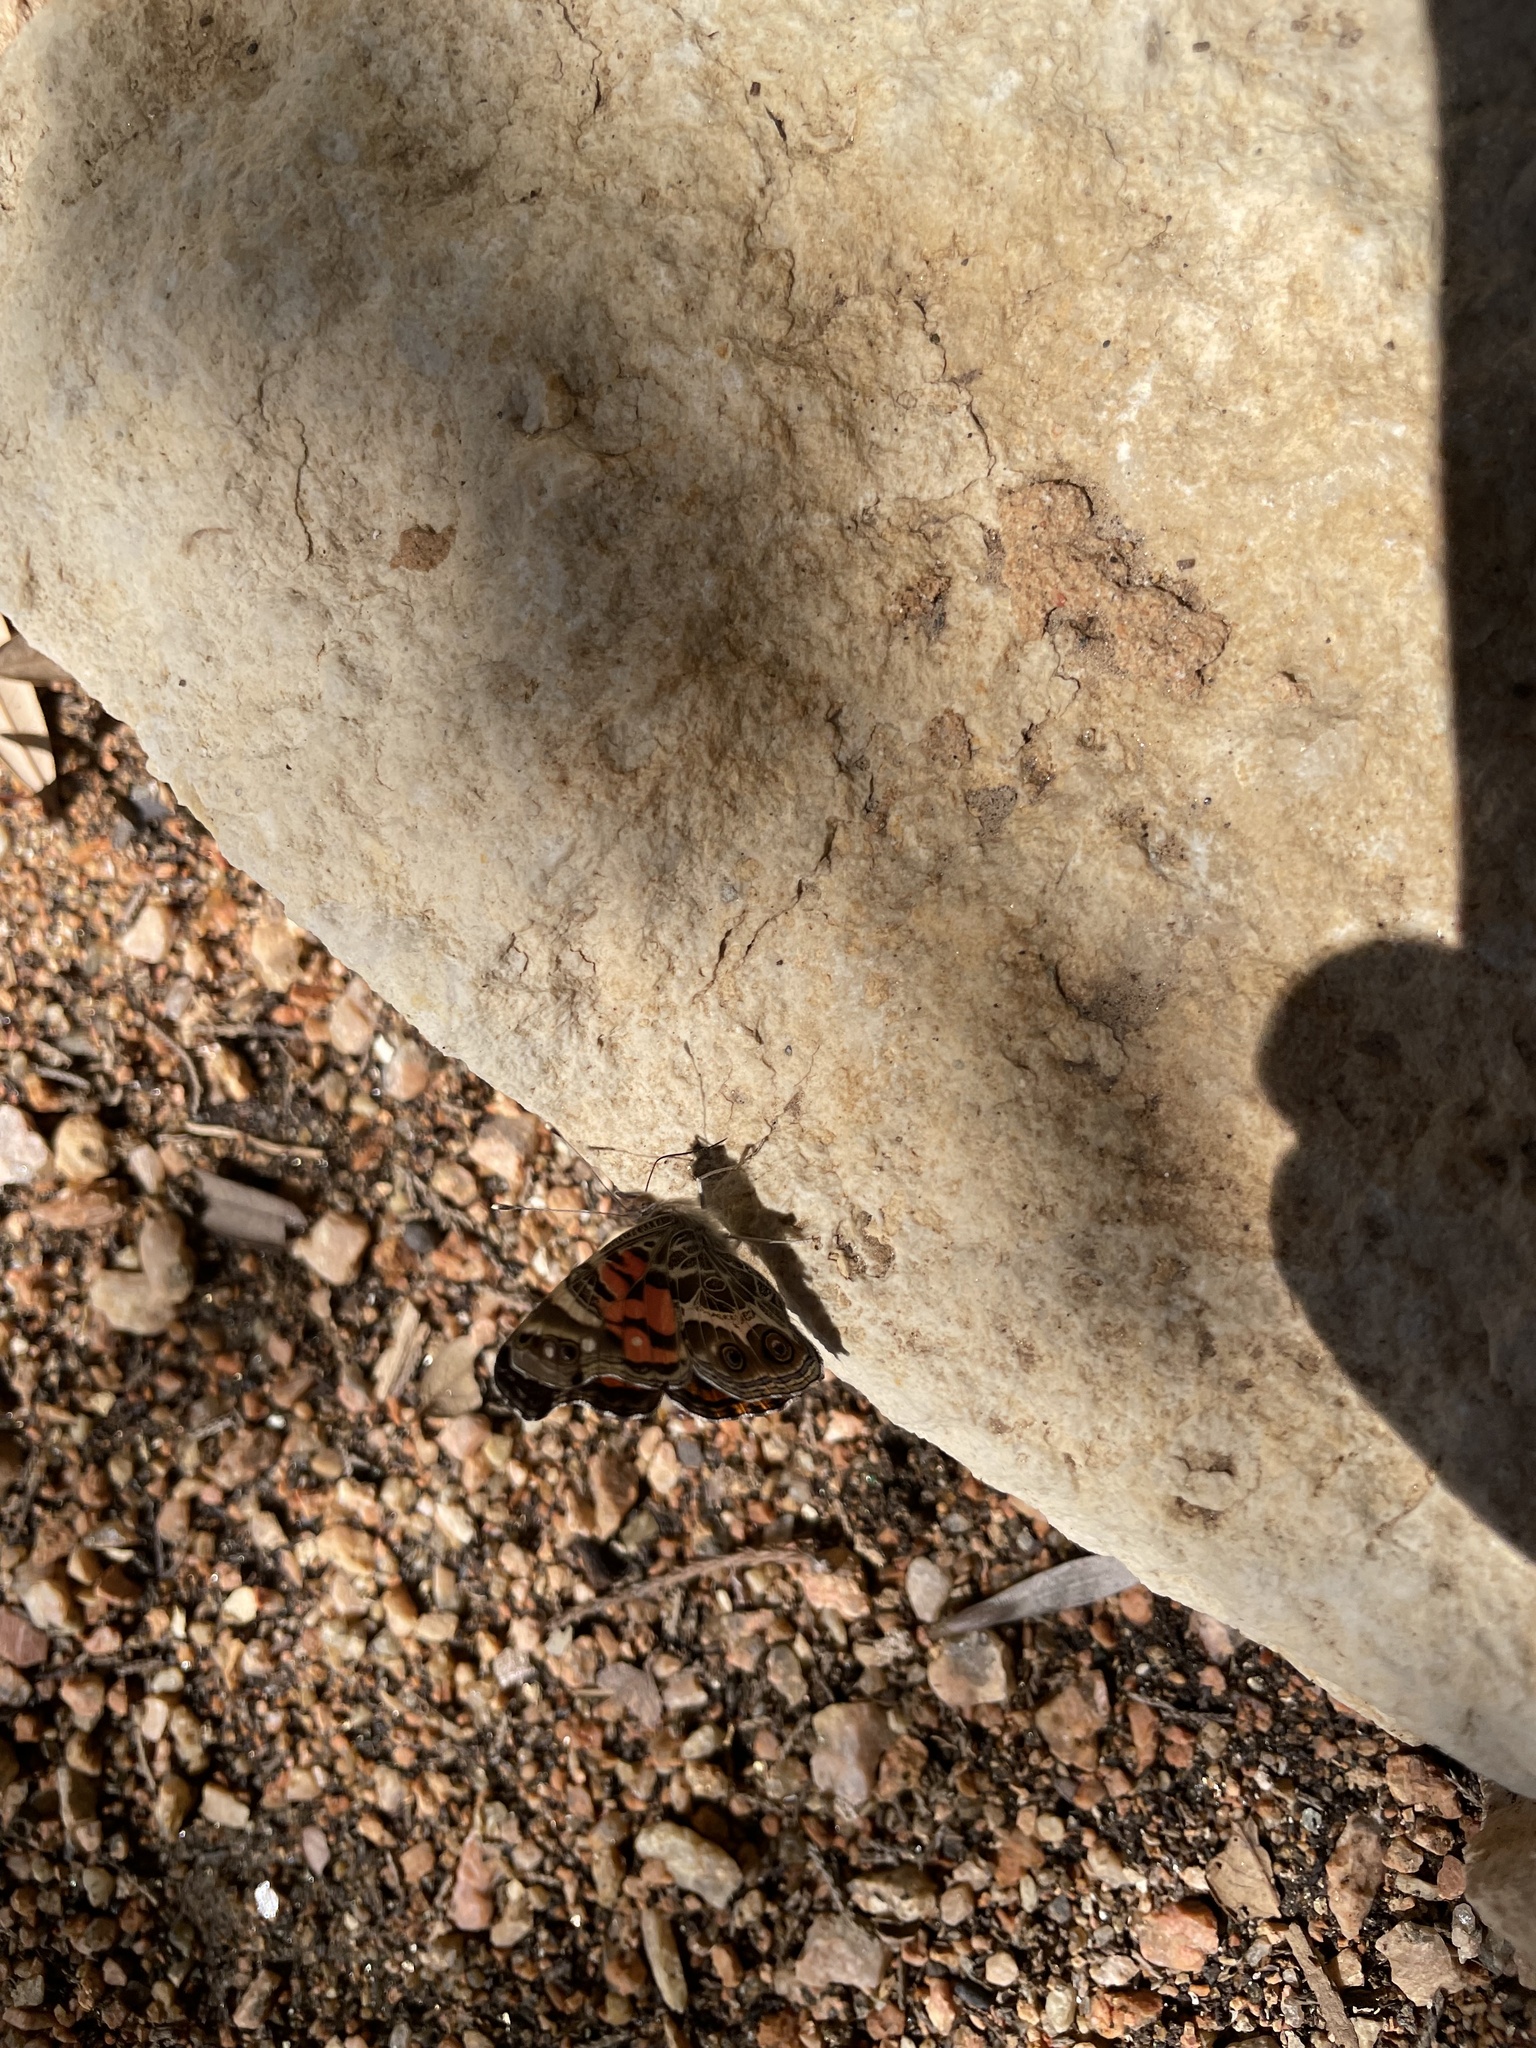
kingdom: Animalia
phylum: Arthropoda
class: Insecta
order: Lepidoptera
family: Nymphalidae
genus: Vanessa
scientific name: Vanessa virginiensis
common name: American lady
